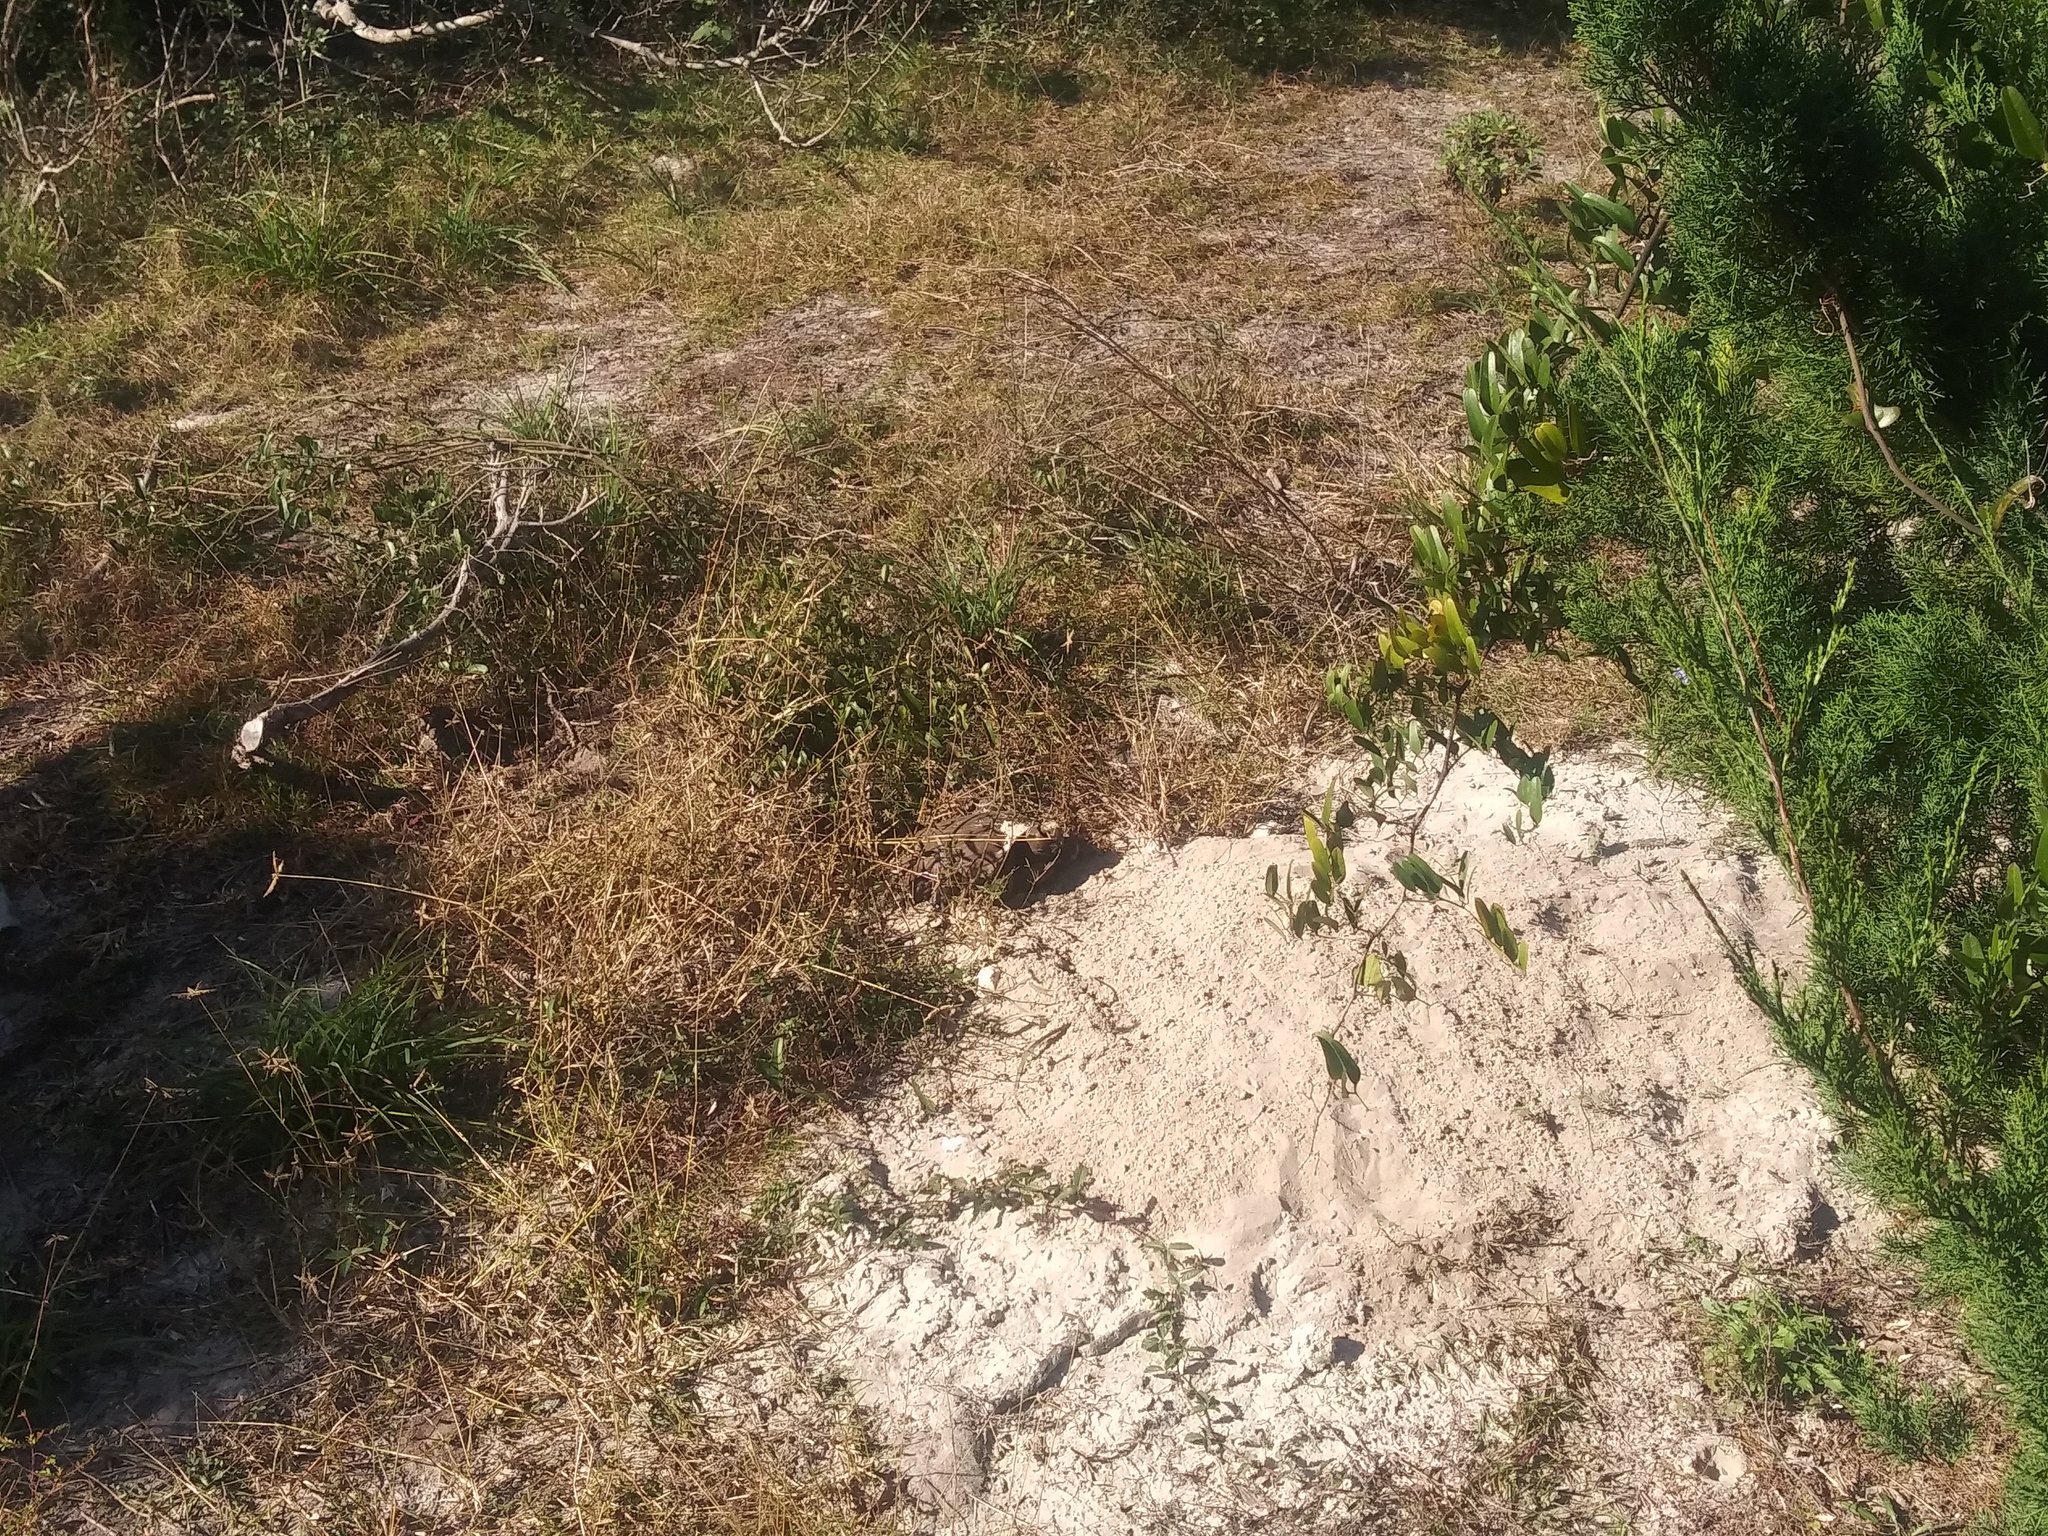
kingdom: Animalia
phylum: Chordata
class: Testudines
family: Testudinidae
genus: Gopherus
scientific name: Gopherus polyphemus
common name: Florida gopher tortoise
